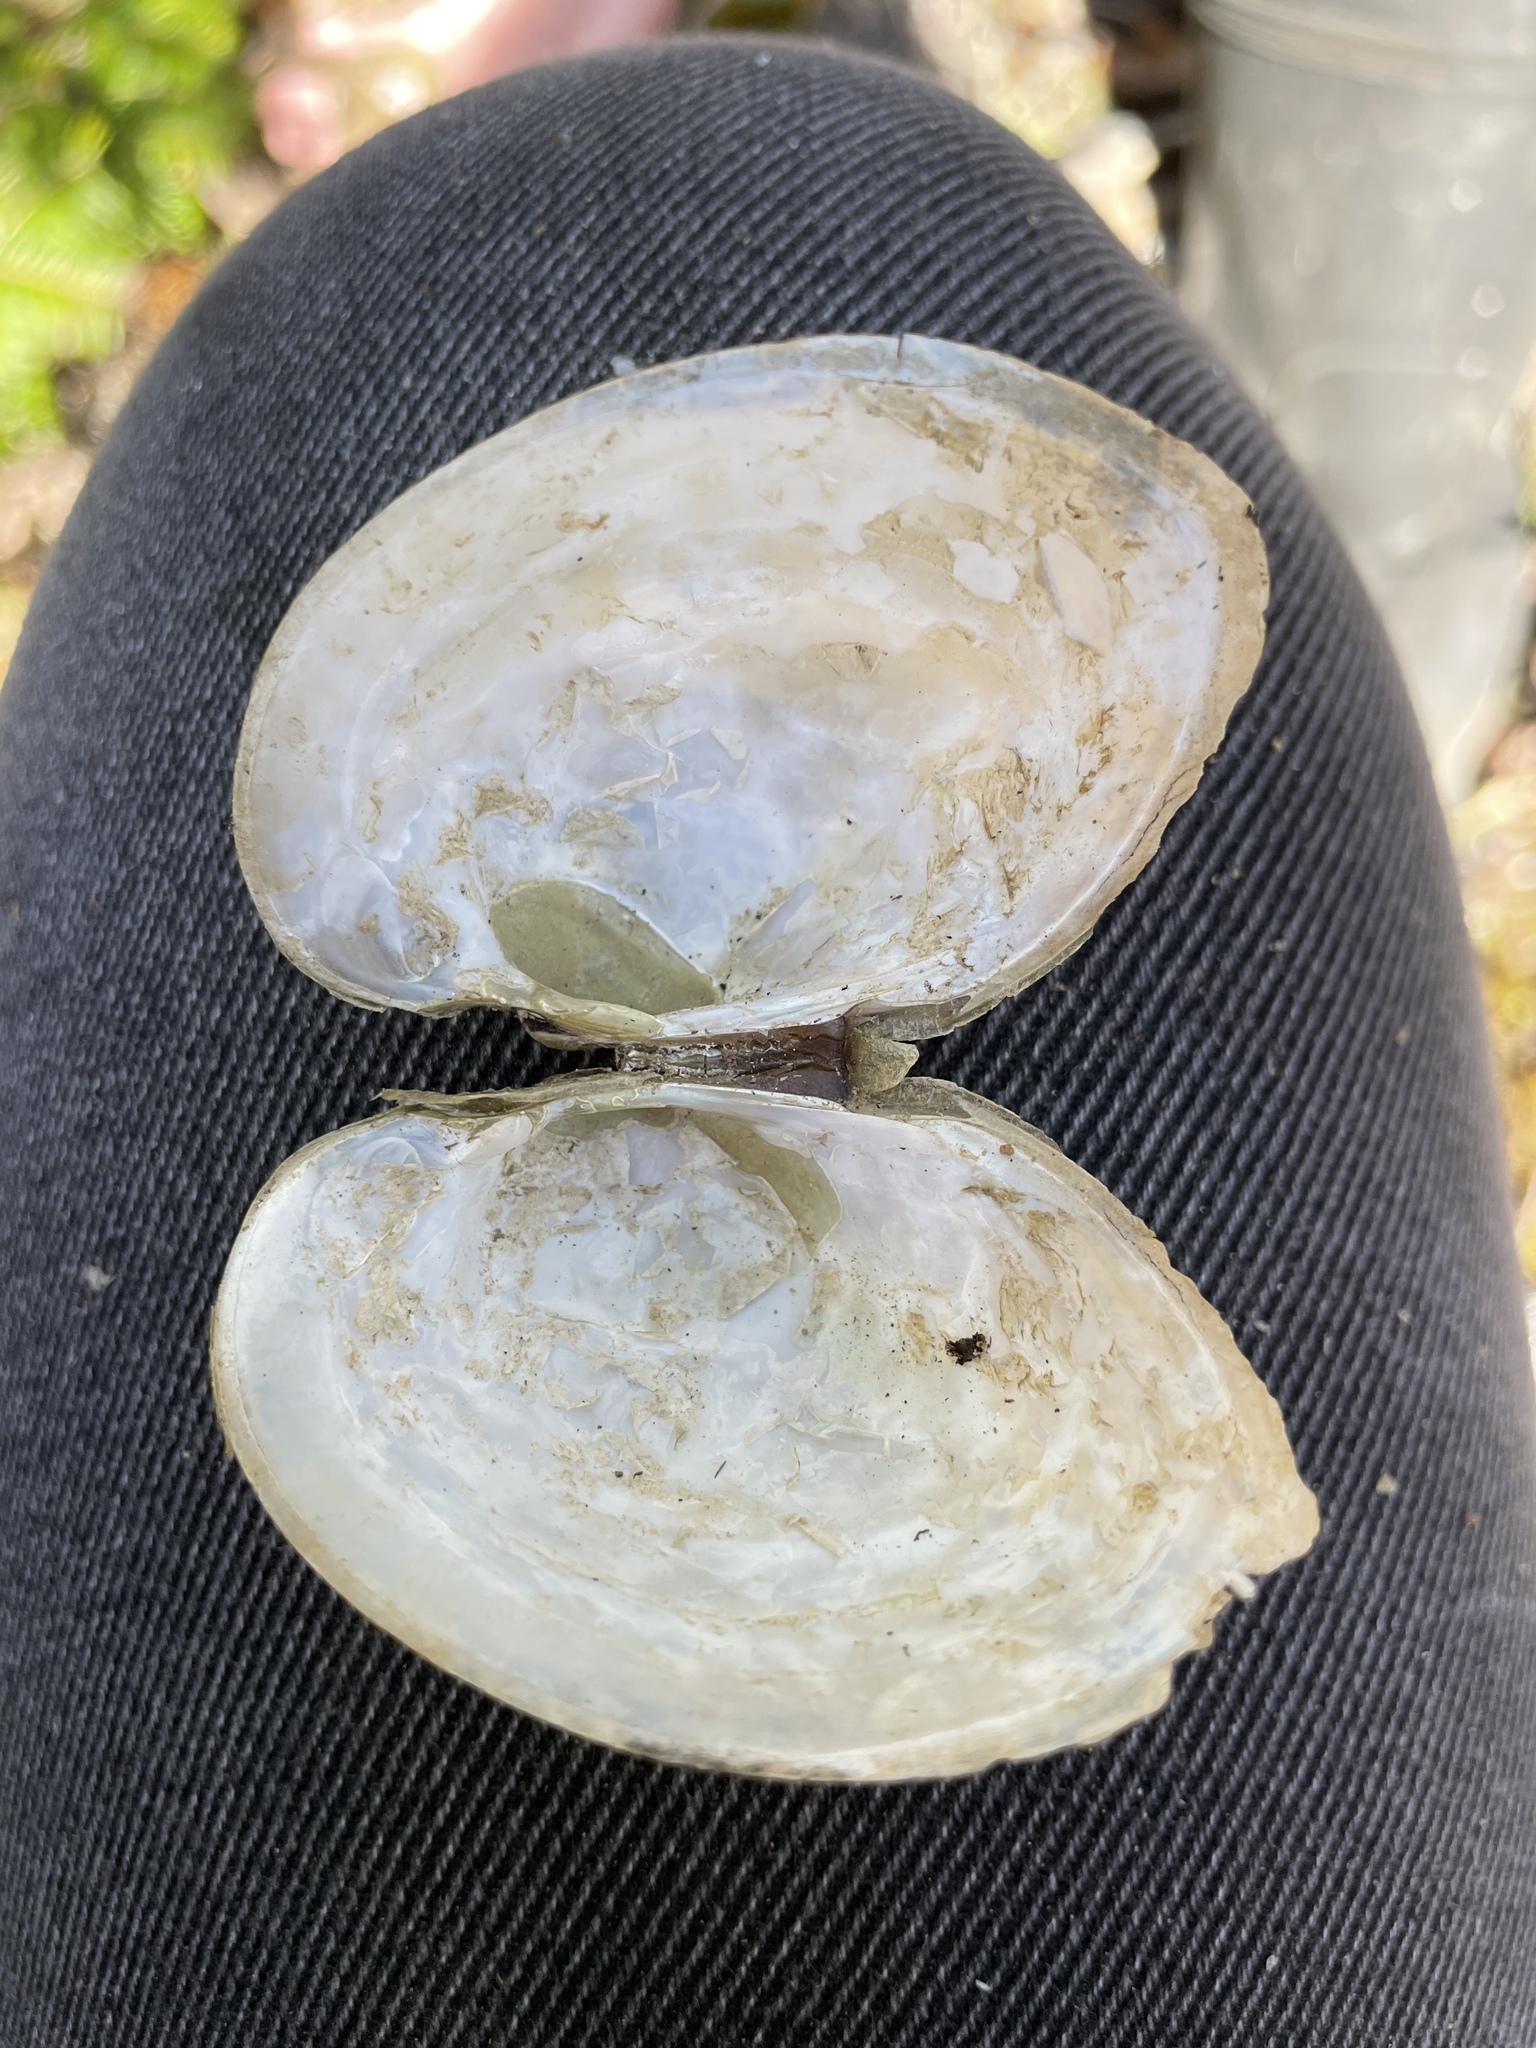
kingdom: Animalia
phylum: Mollusca
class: Bivalvia
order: Unionida
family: Unionidae
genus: Lampsilis
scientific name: Lampsilis cariosa
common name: Yellow lampmussel
